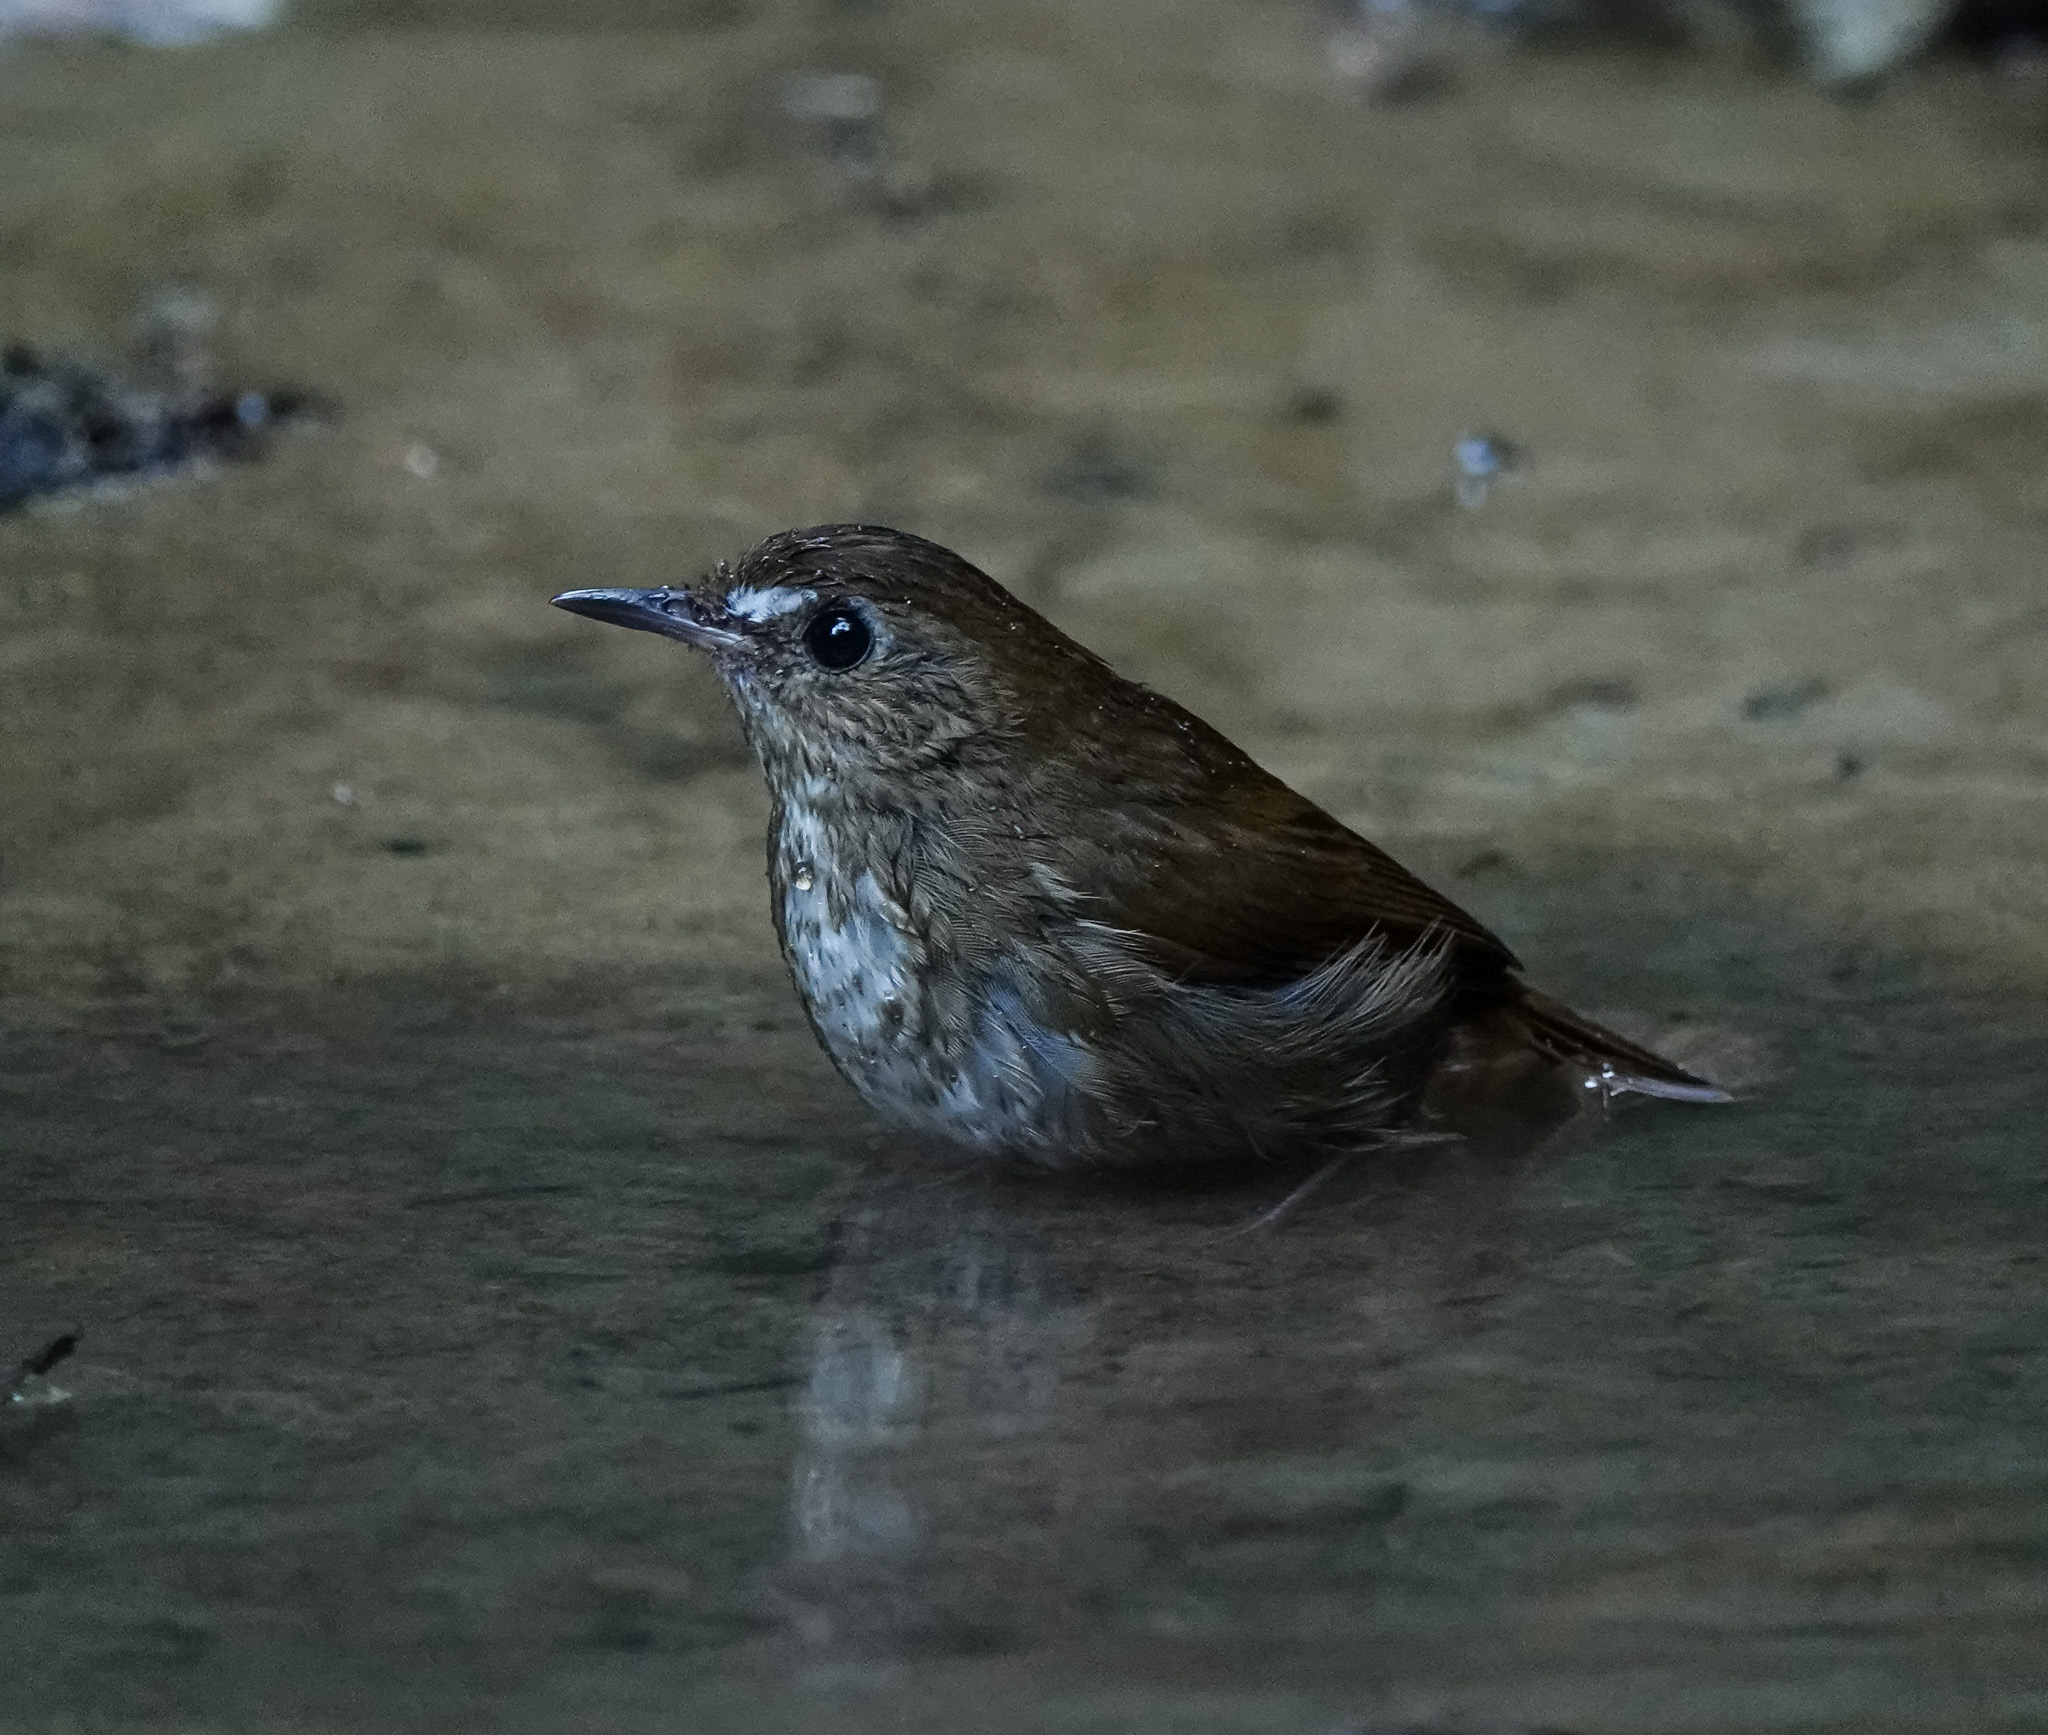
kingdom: Animalia
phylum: Chordata
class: Aves
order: Passeriformes
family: Muscicapidae
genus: Brachypteryx
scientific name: Brachypteryx leucophris
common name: Lesser shortwing
